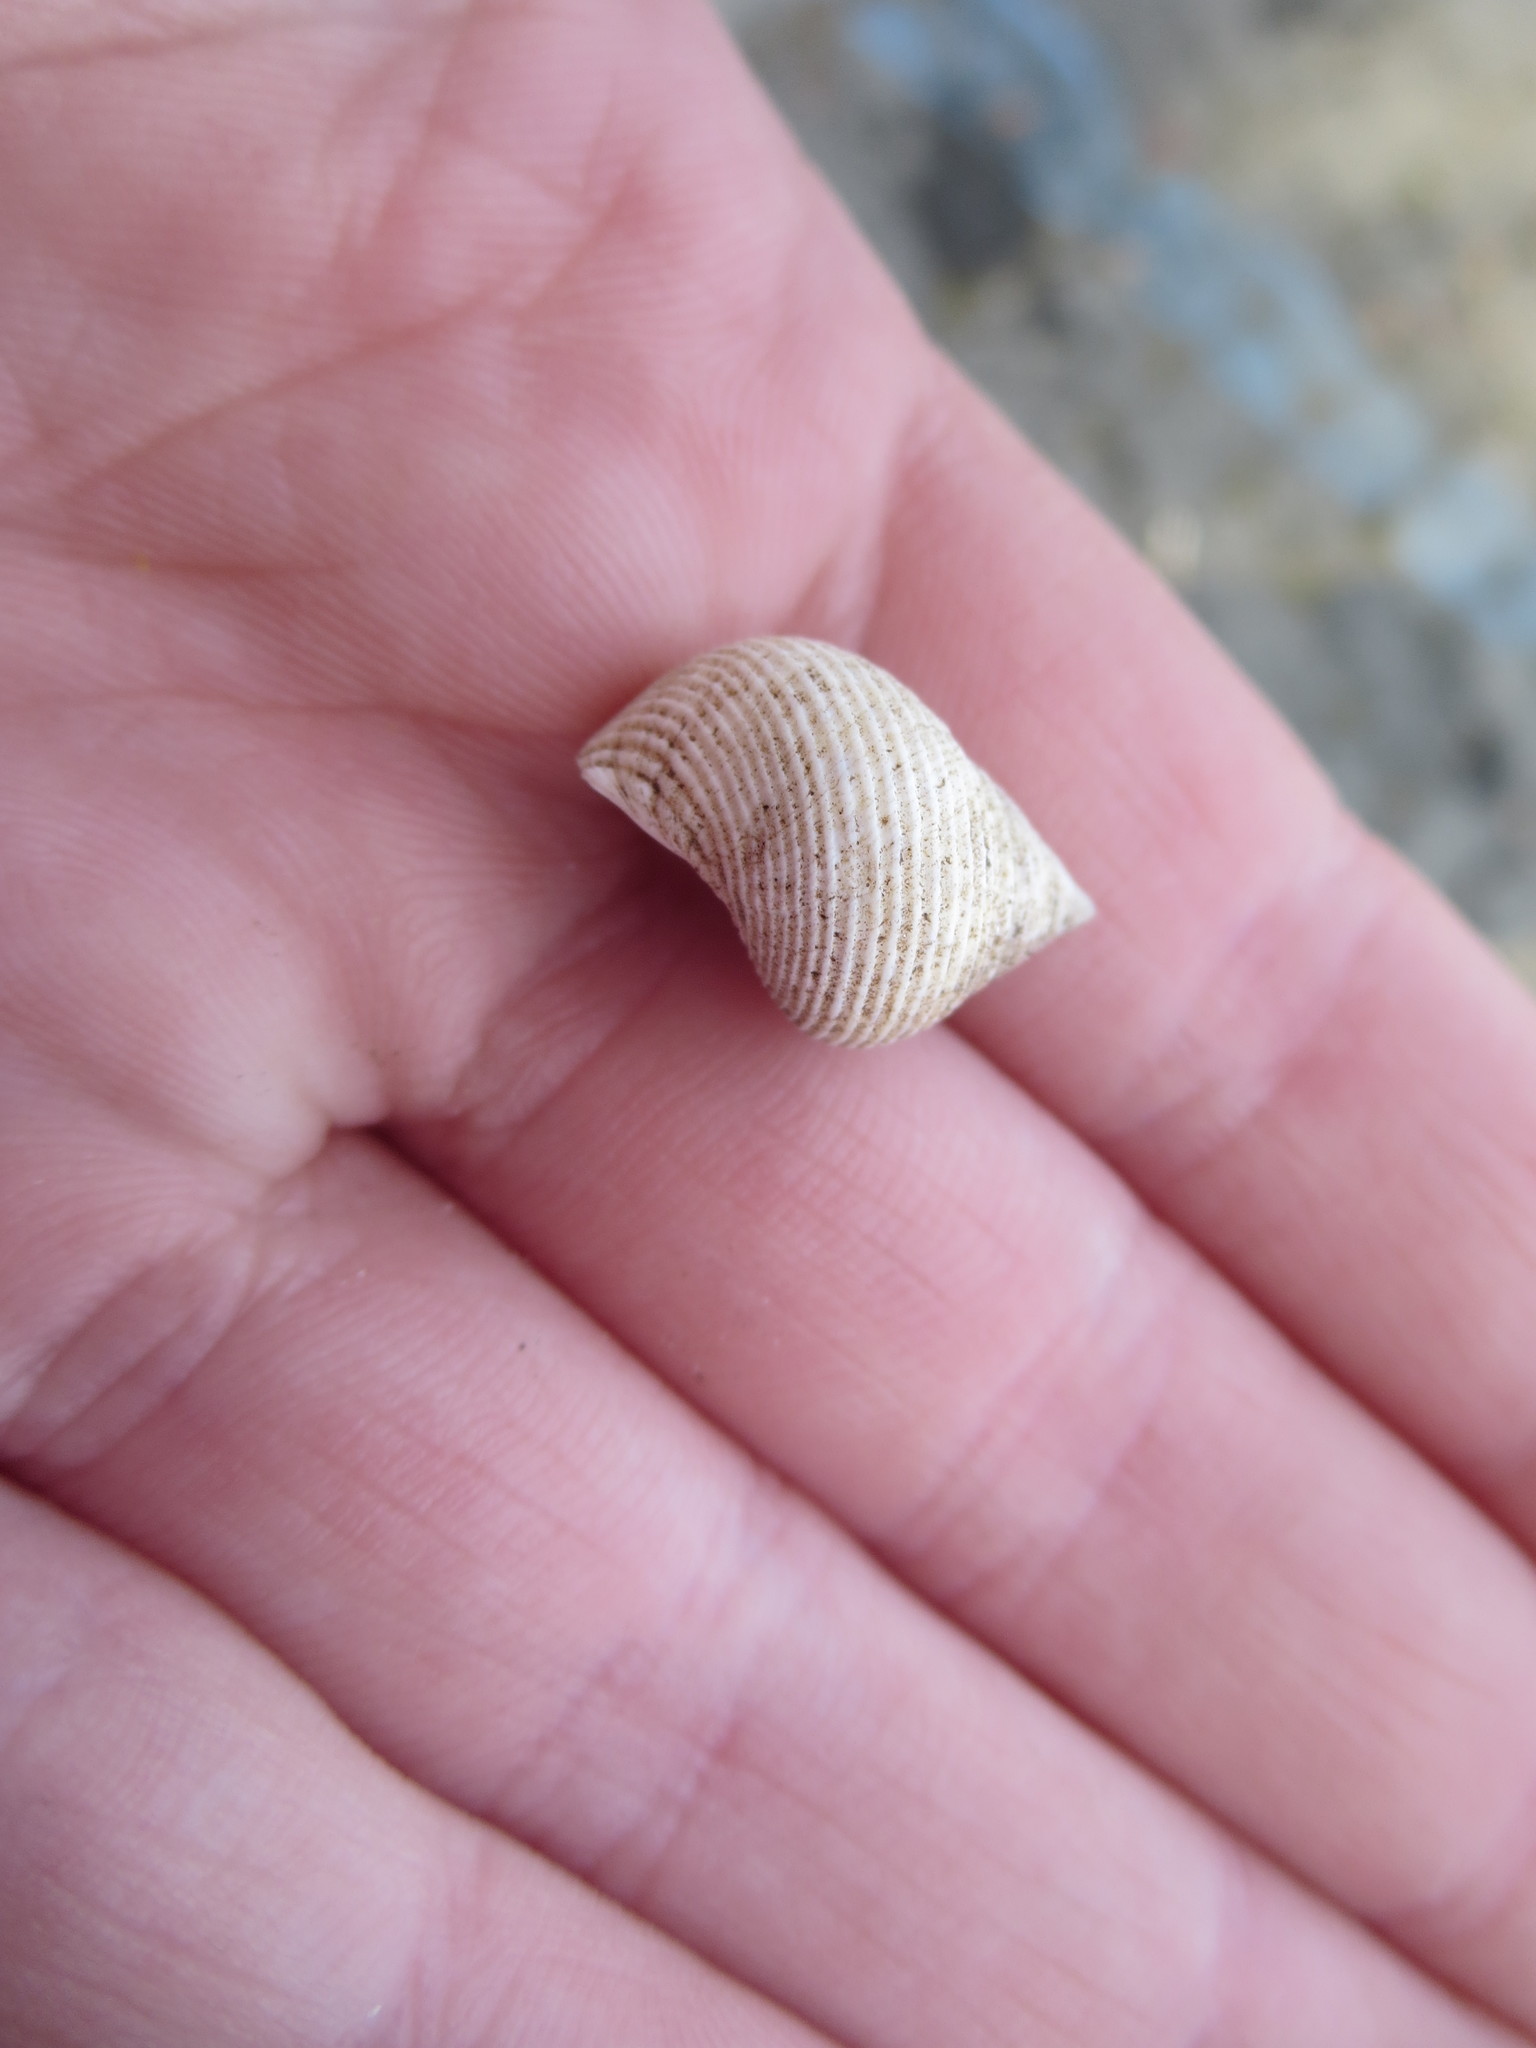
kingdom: Animalia
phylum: Mollusca
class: Gastropoda
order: Littorinimorpha
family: Littorinidae
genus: Littoraria
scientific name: Littoraria irrorata
